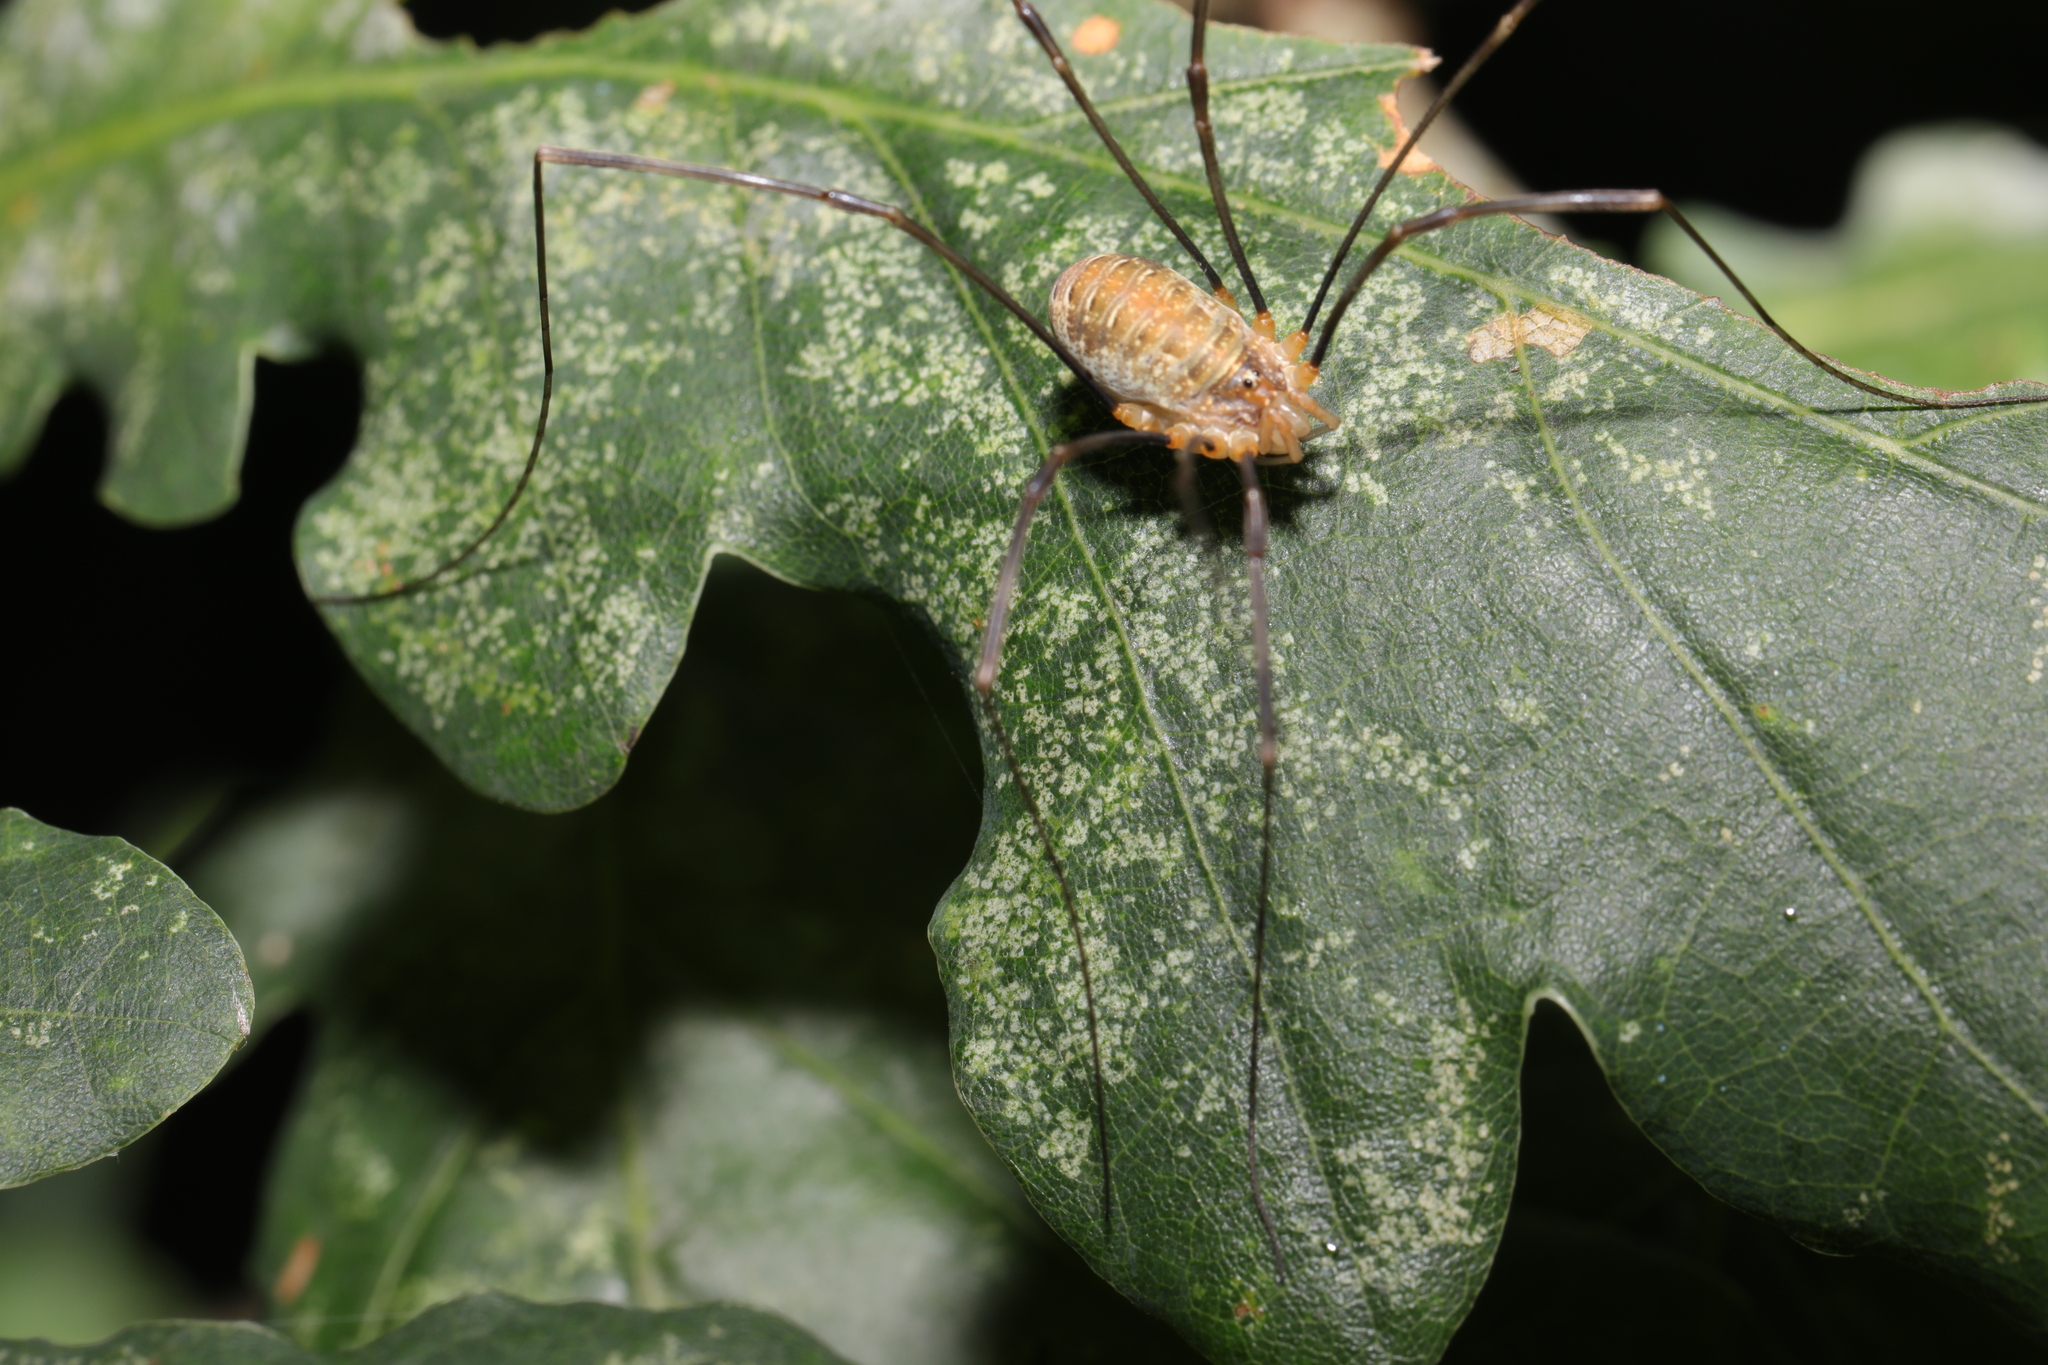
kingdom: Animalia
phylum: Arthropoda
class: Arachnida
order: Opiliones
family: Phalangiidae
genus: Opilio
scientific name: Opilio canestrinii
